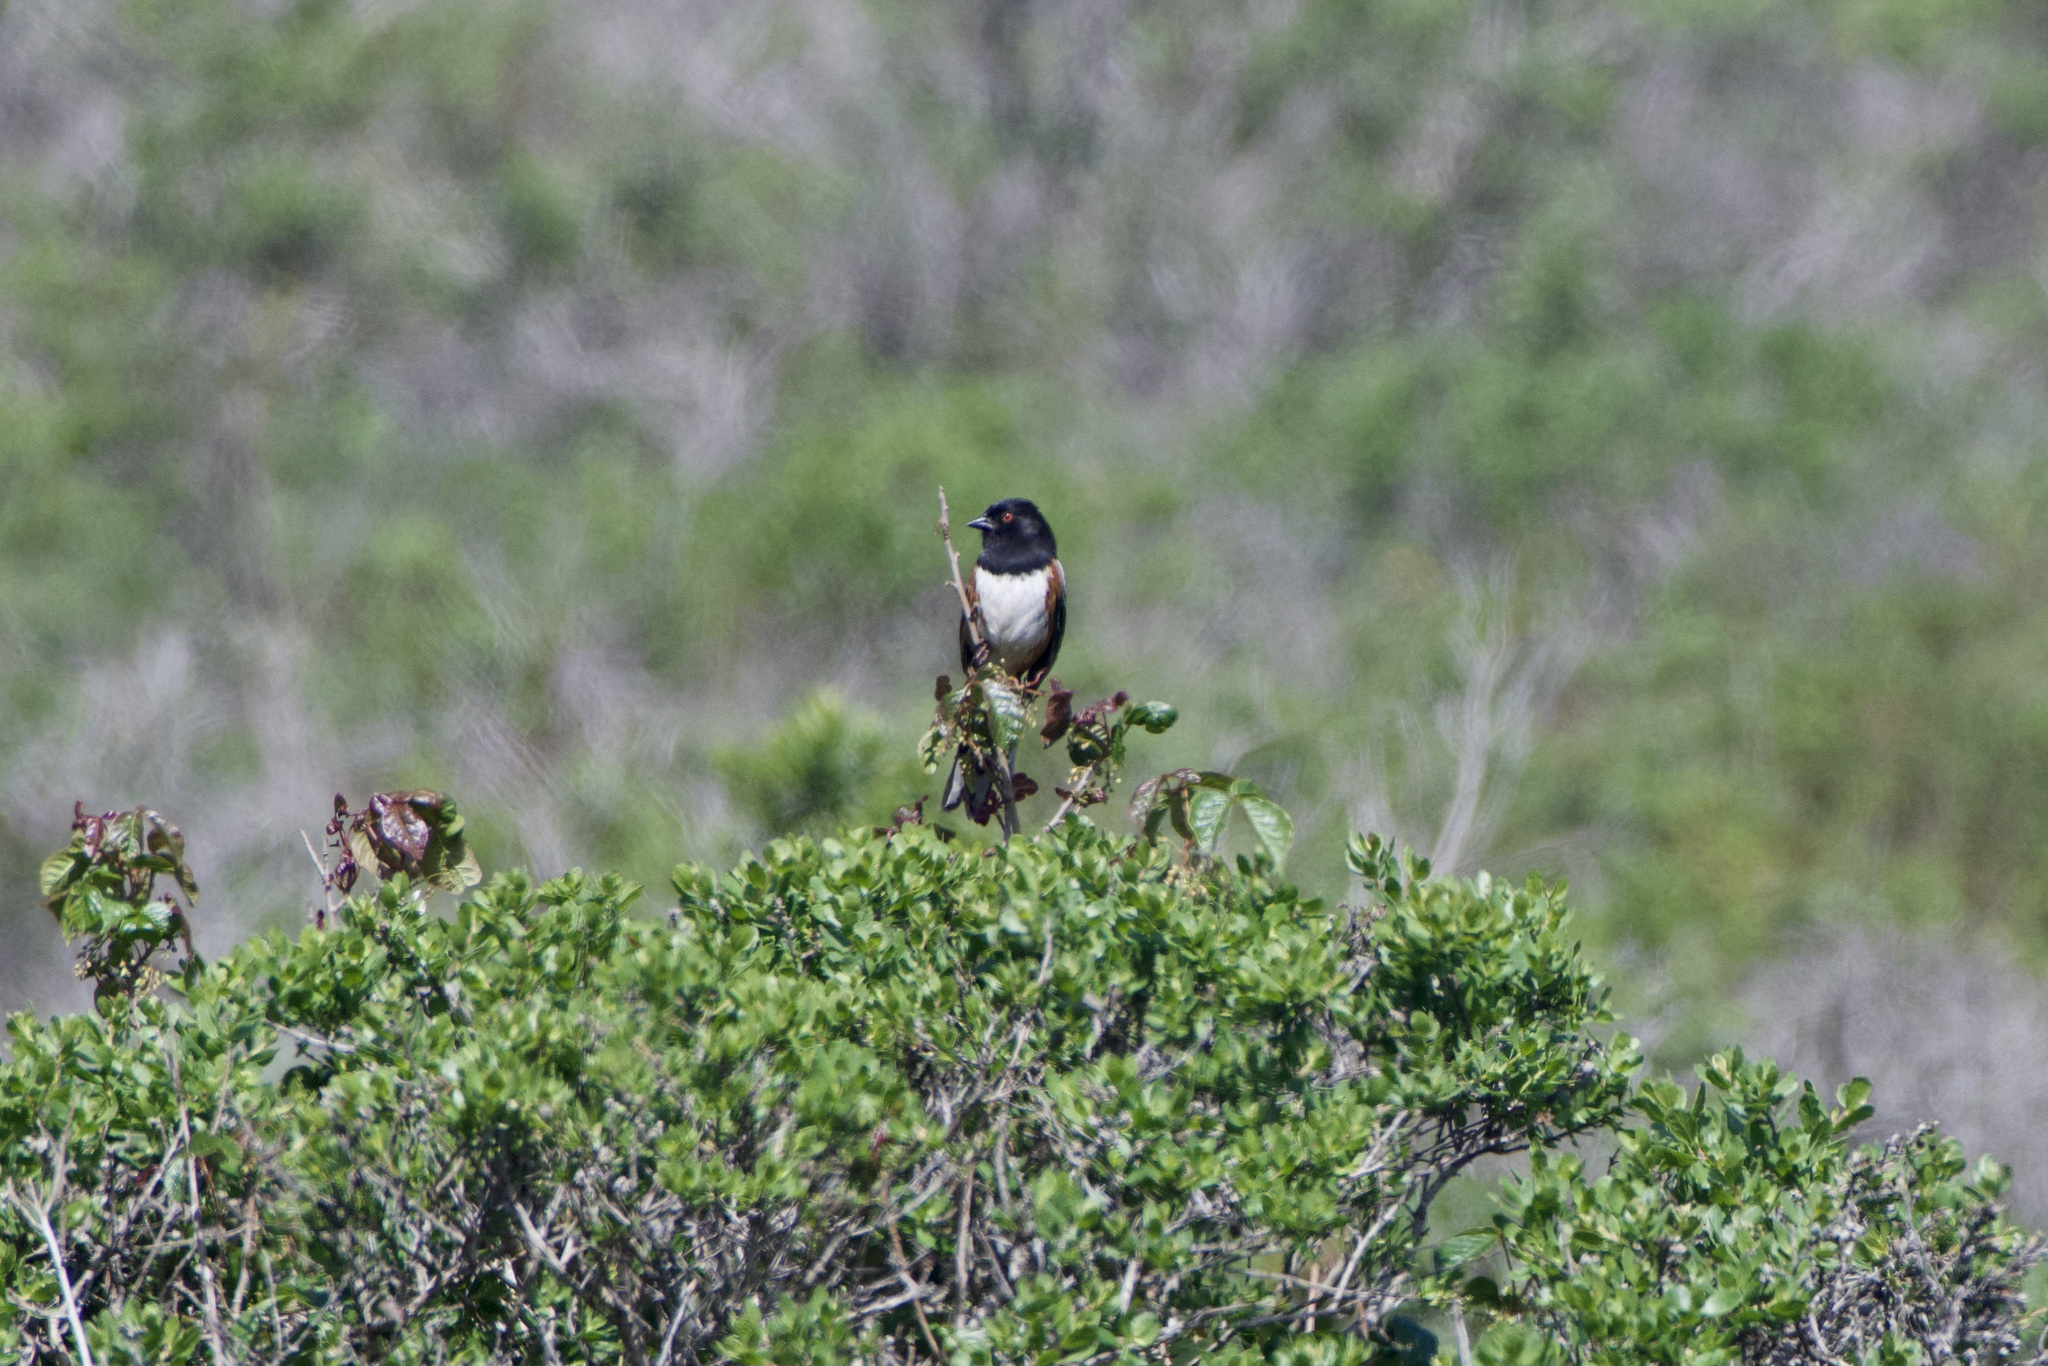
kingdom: Animalia
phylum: Chordata
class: Aves
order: Passeriformes
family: Passerellidae
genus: Pipilo
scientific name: Pipilo maculatus
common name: Spotted towhee
